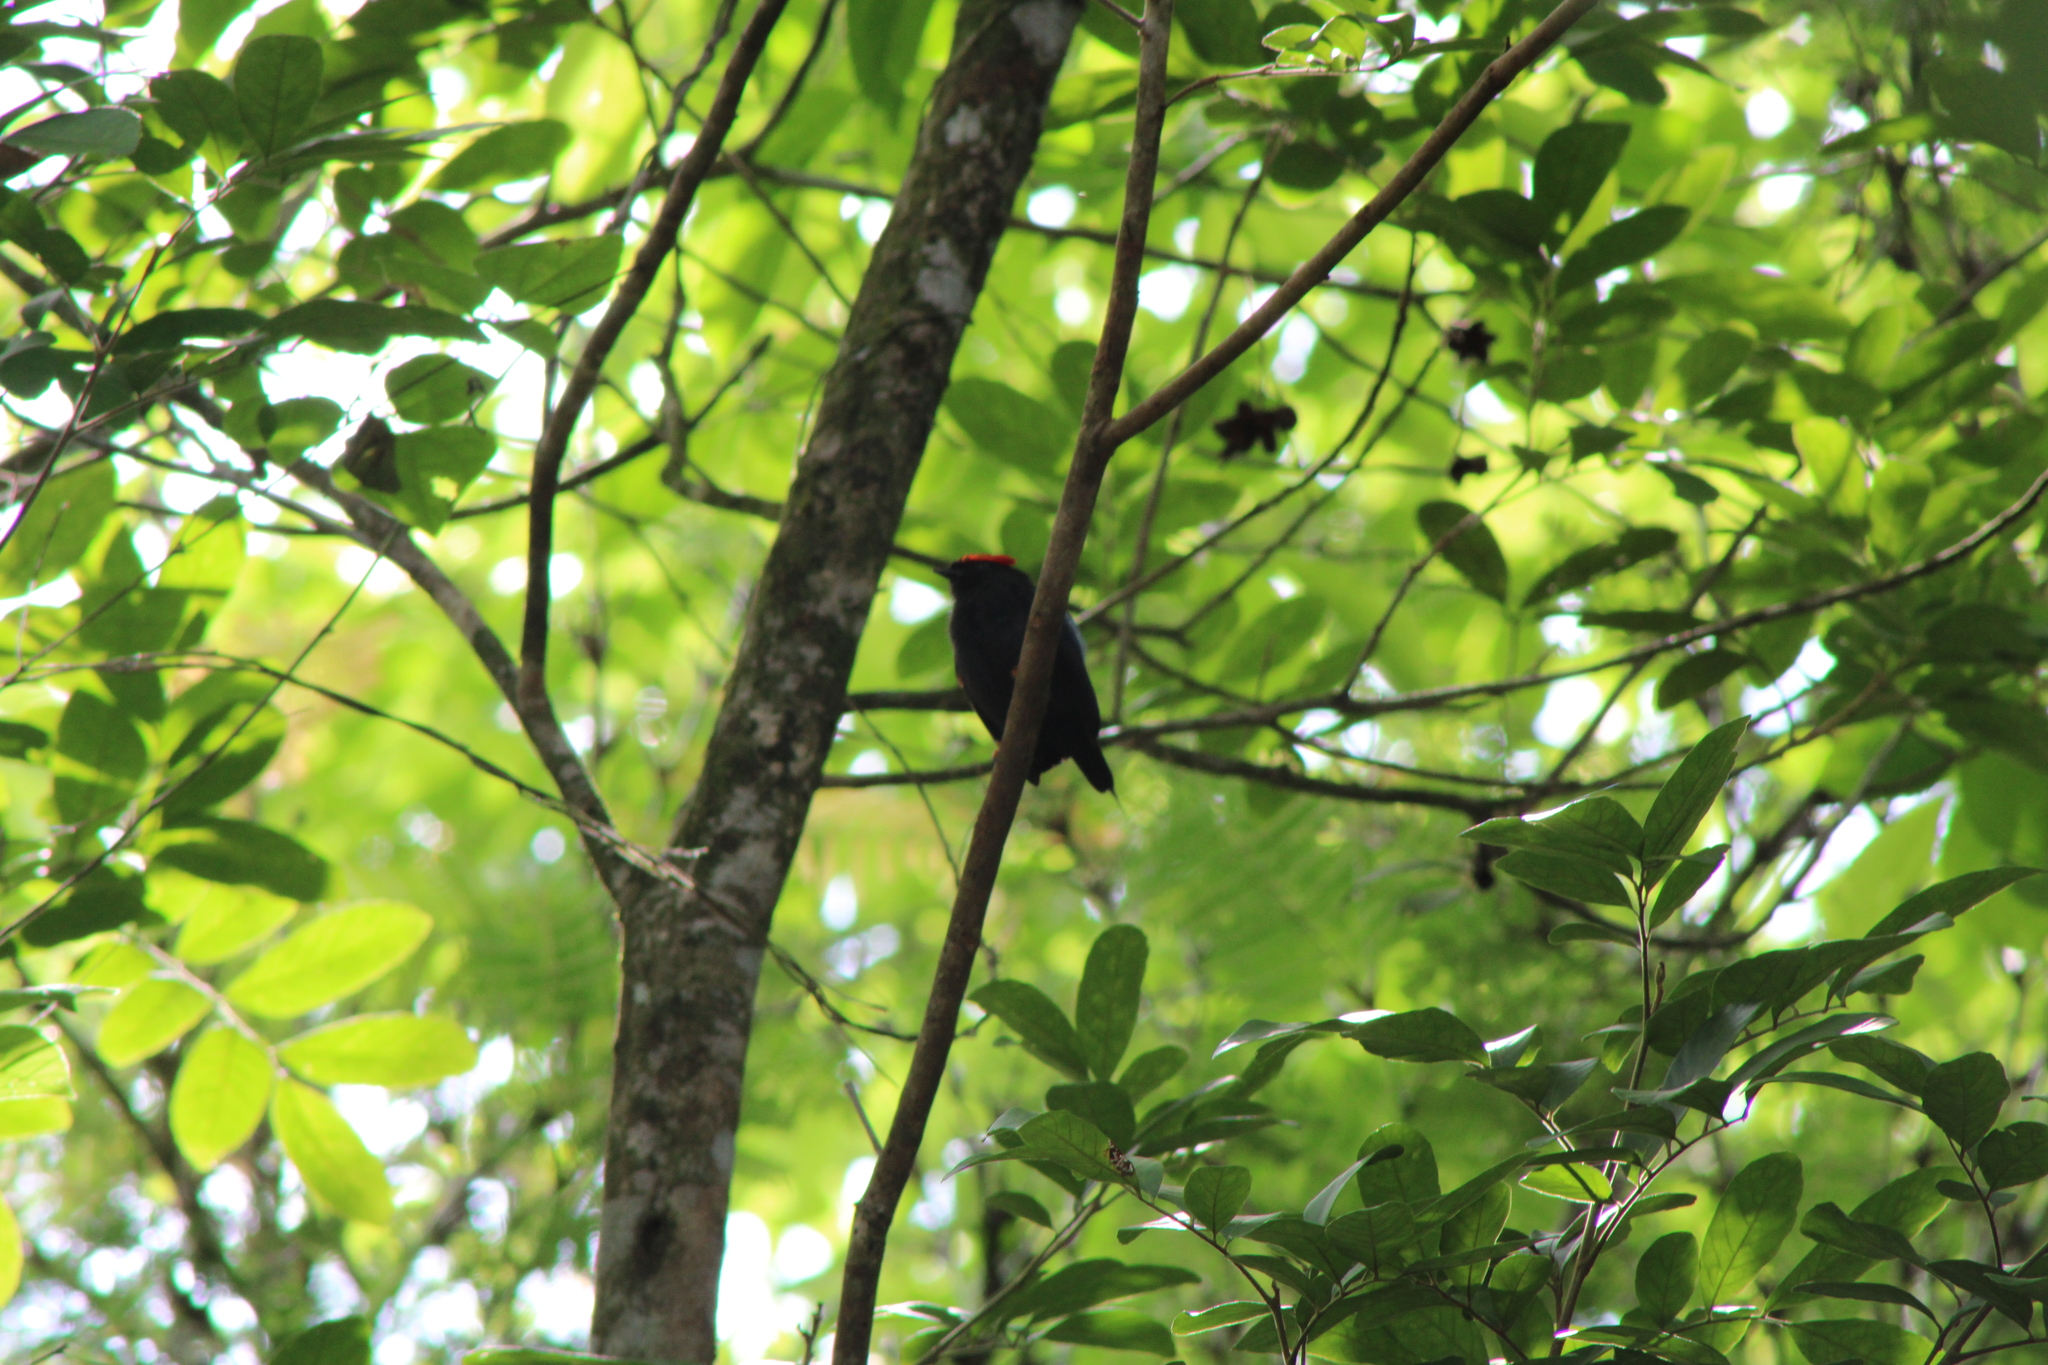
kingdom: Animalia
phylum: Chordata
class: Aves
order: Passeriformes
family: Pipridae
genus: Chiroxiphia
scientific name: Chiroxiphia lanceolata
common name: Lance-tailed manakin
